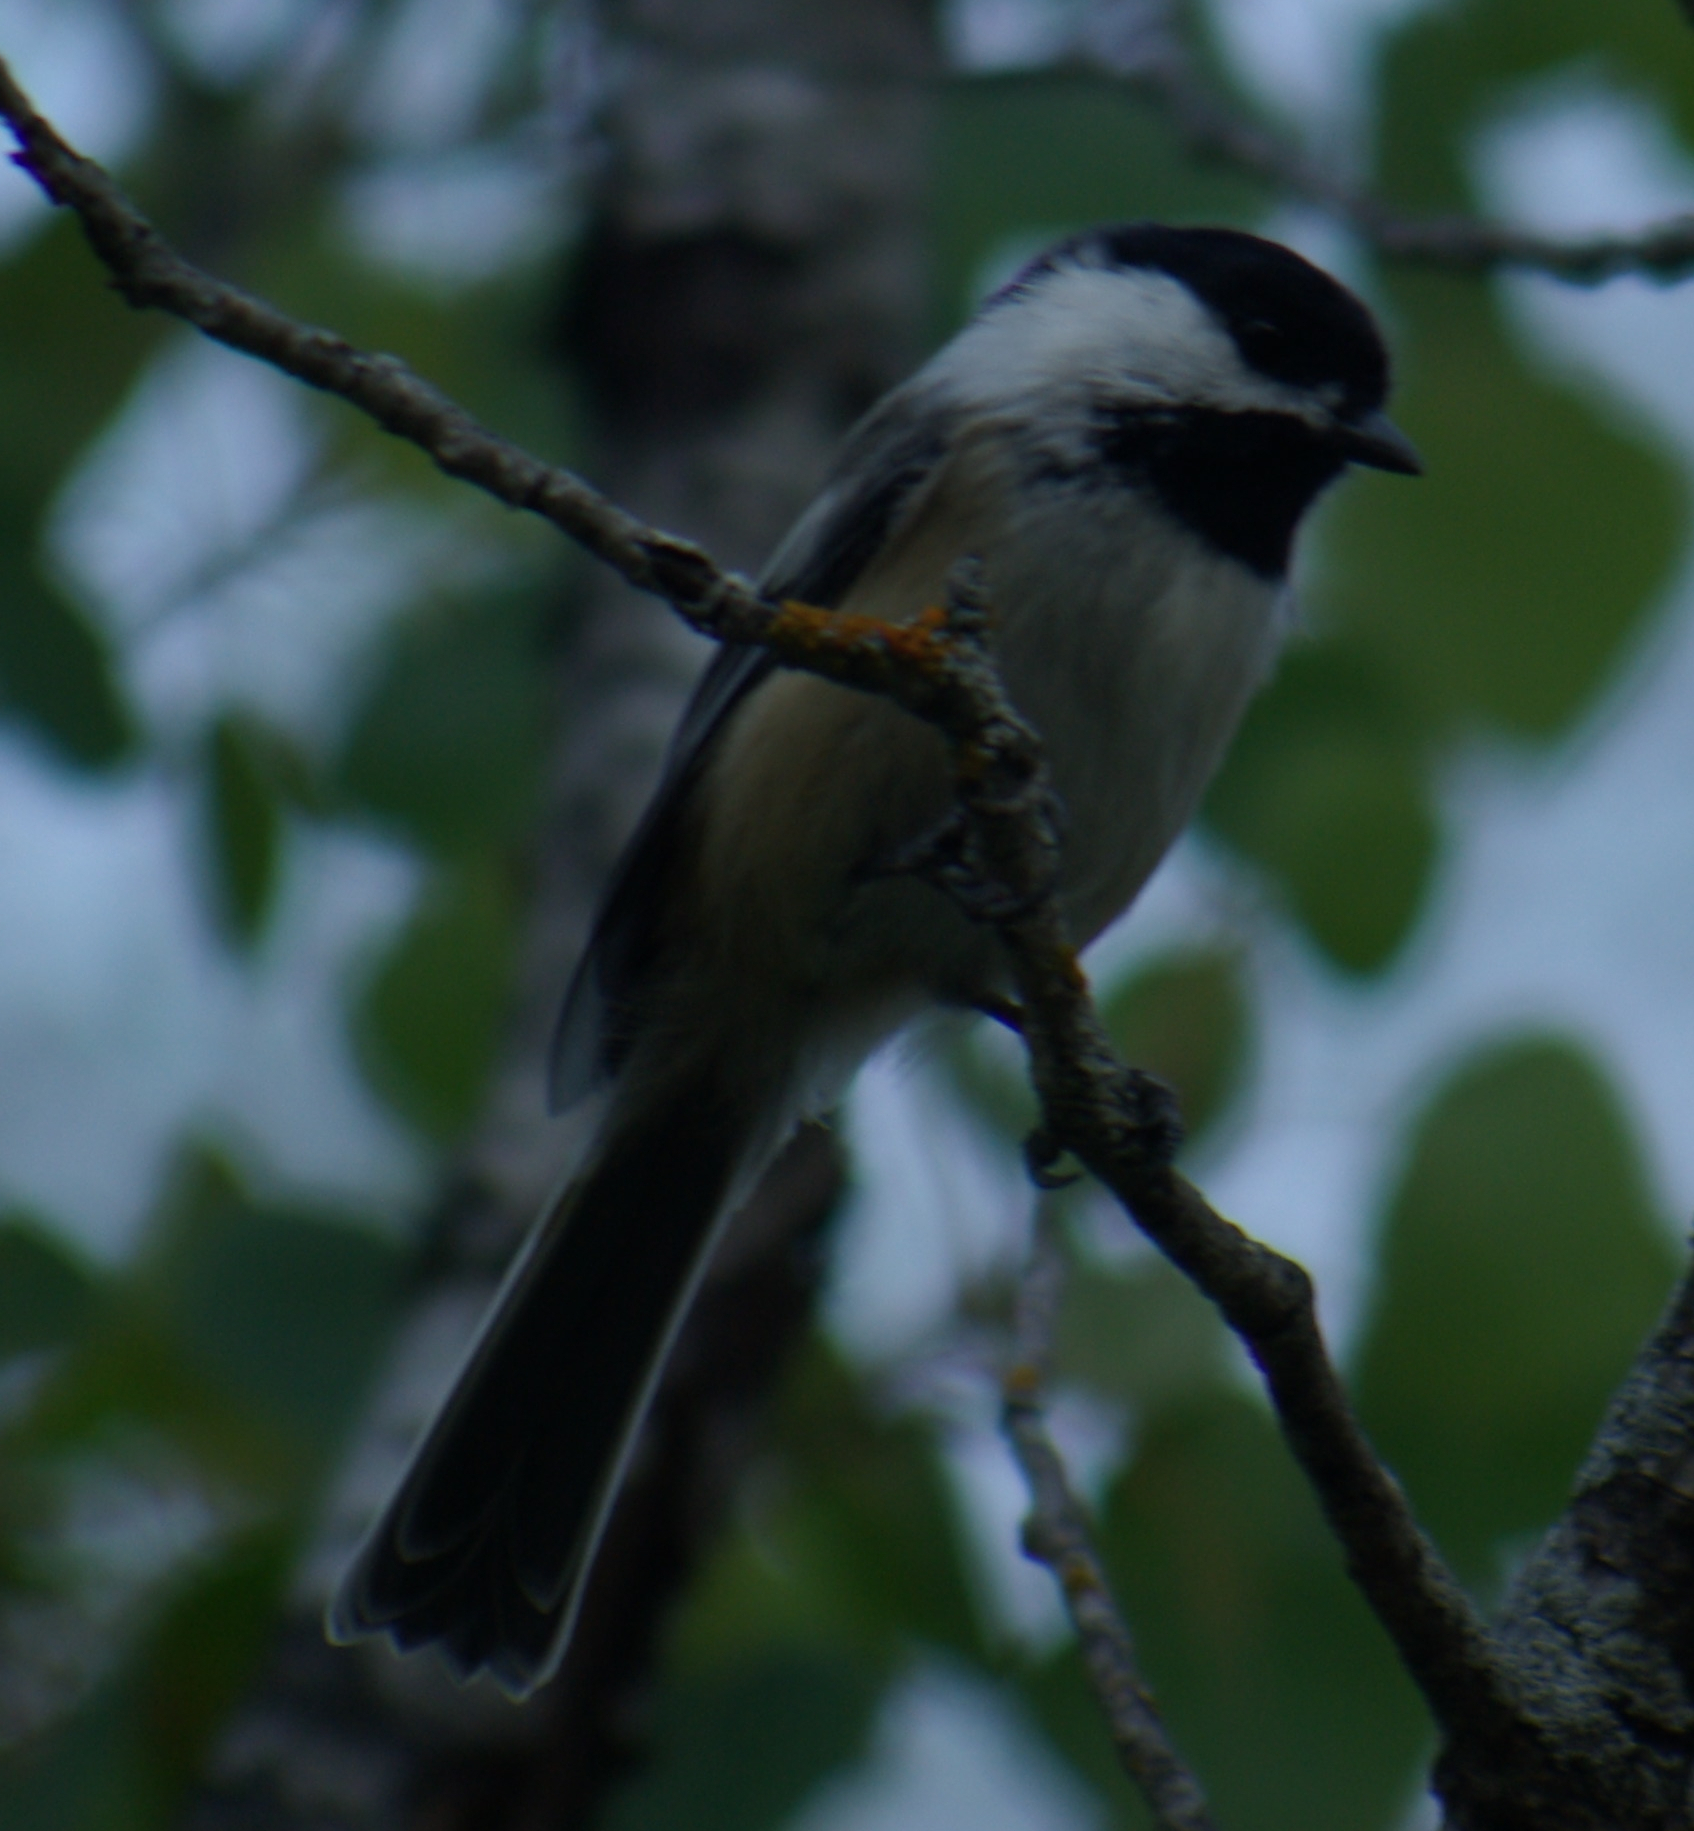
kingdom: Animalia
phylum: Chordata
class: Aves
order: Passeriformes
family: Paridae
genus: Poecile
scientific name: Poecile atricapillus
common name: Black-capped chickadee
